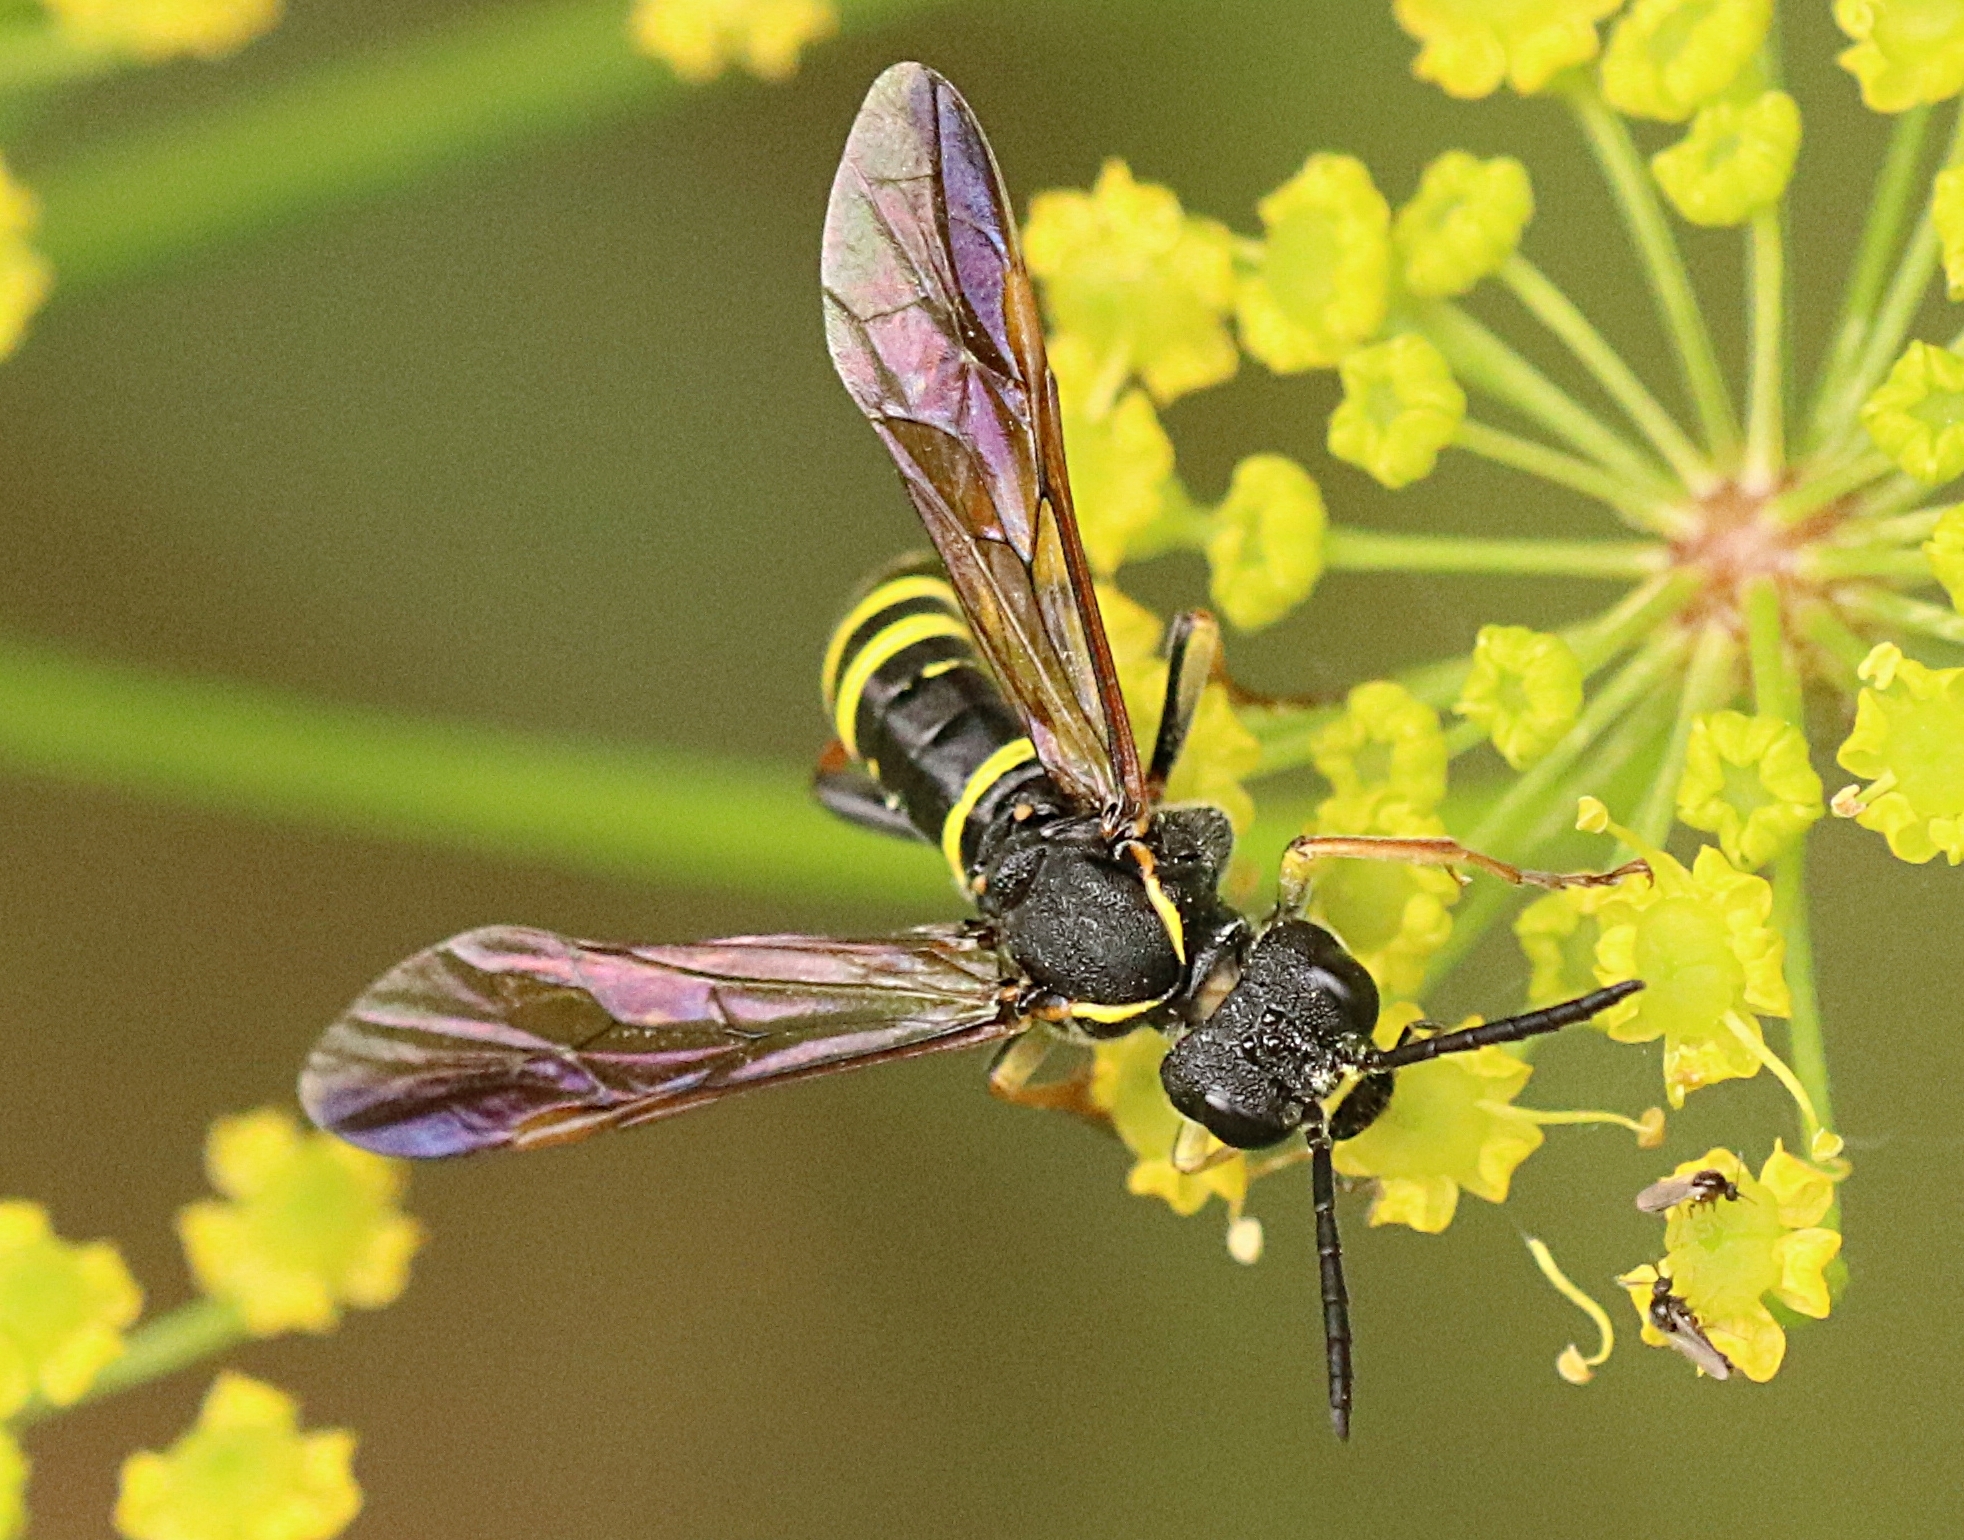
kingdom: Animalia
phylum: Arthropoda
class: Insecta
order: Hymenoptera
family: Tenthredinidae
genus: Tenthredo
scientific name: Tenthredo vespa
